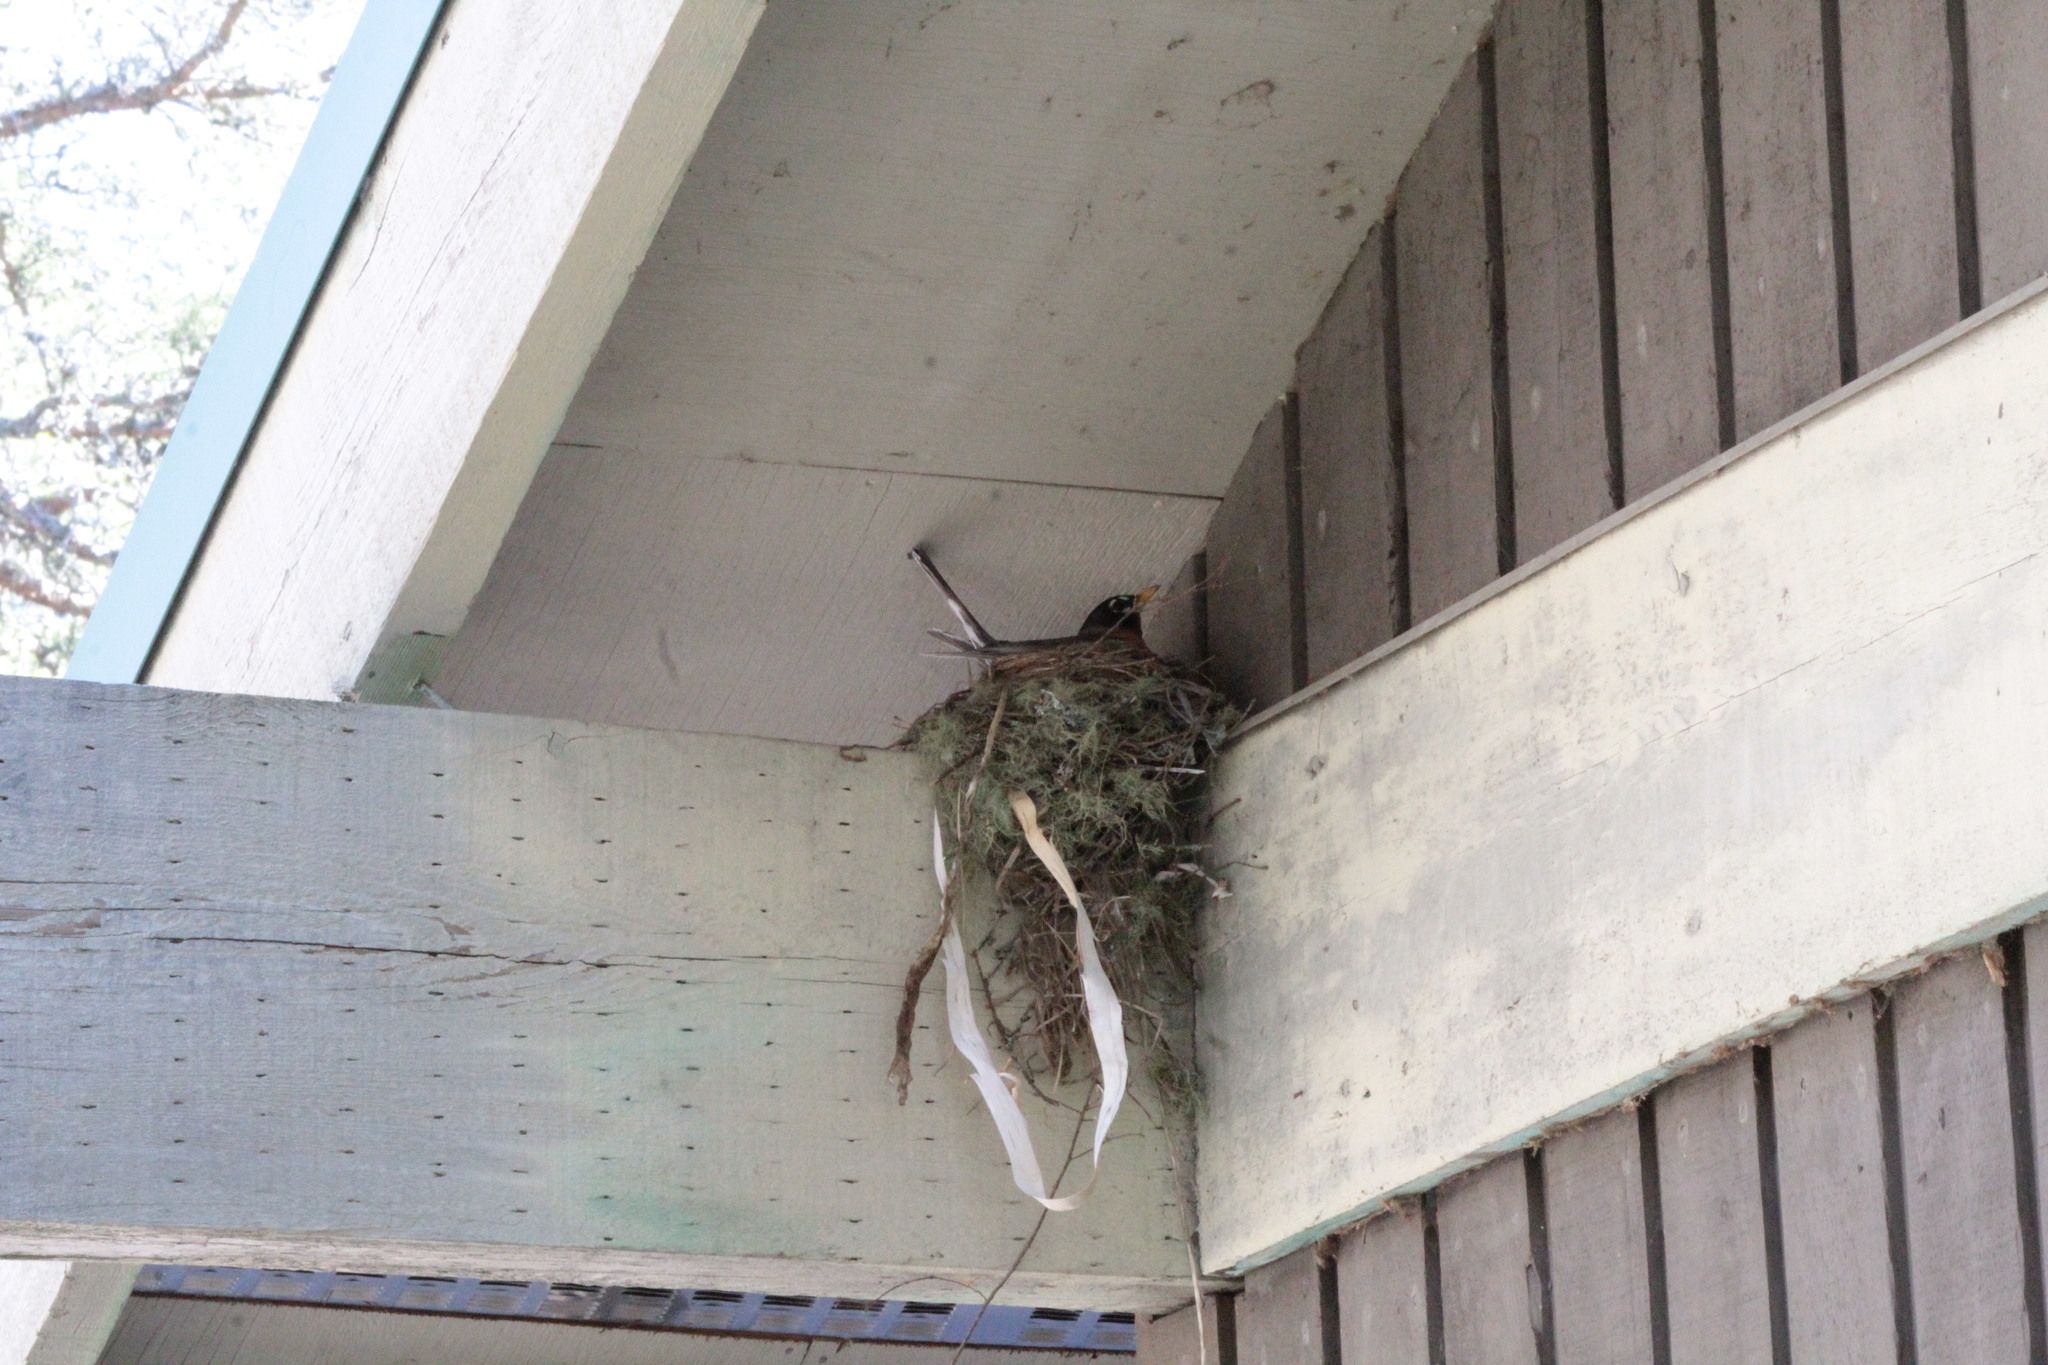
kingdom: Animalia
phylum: Chordata
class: Aves
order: Passeriformes
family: Turdidae
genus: Turdus
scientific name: Turdus migratorius
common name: American robin
